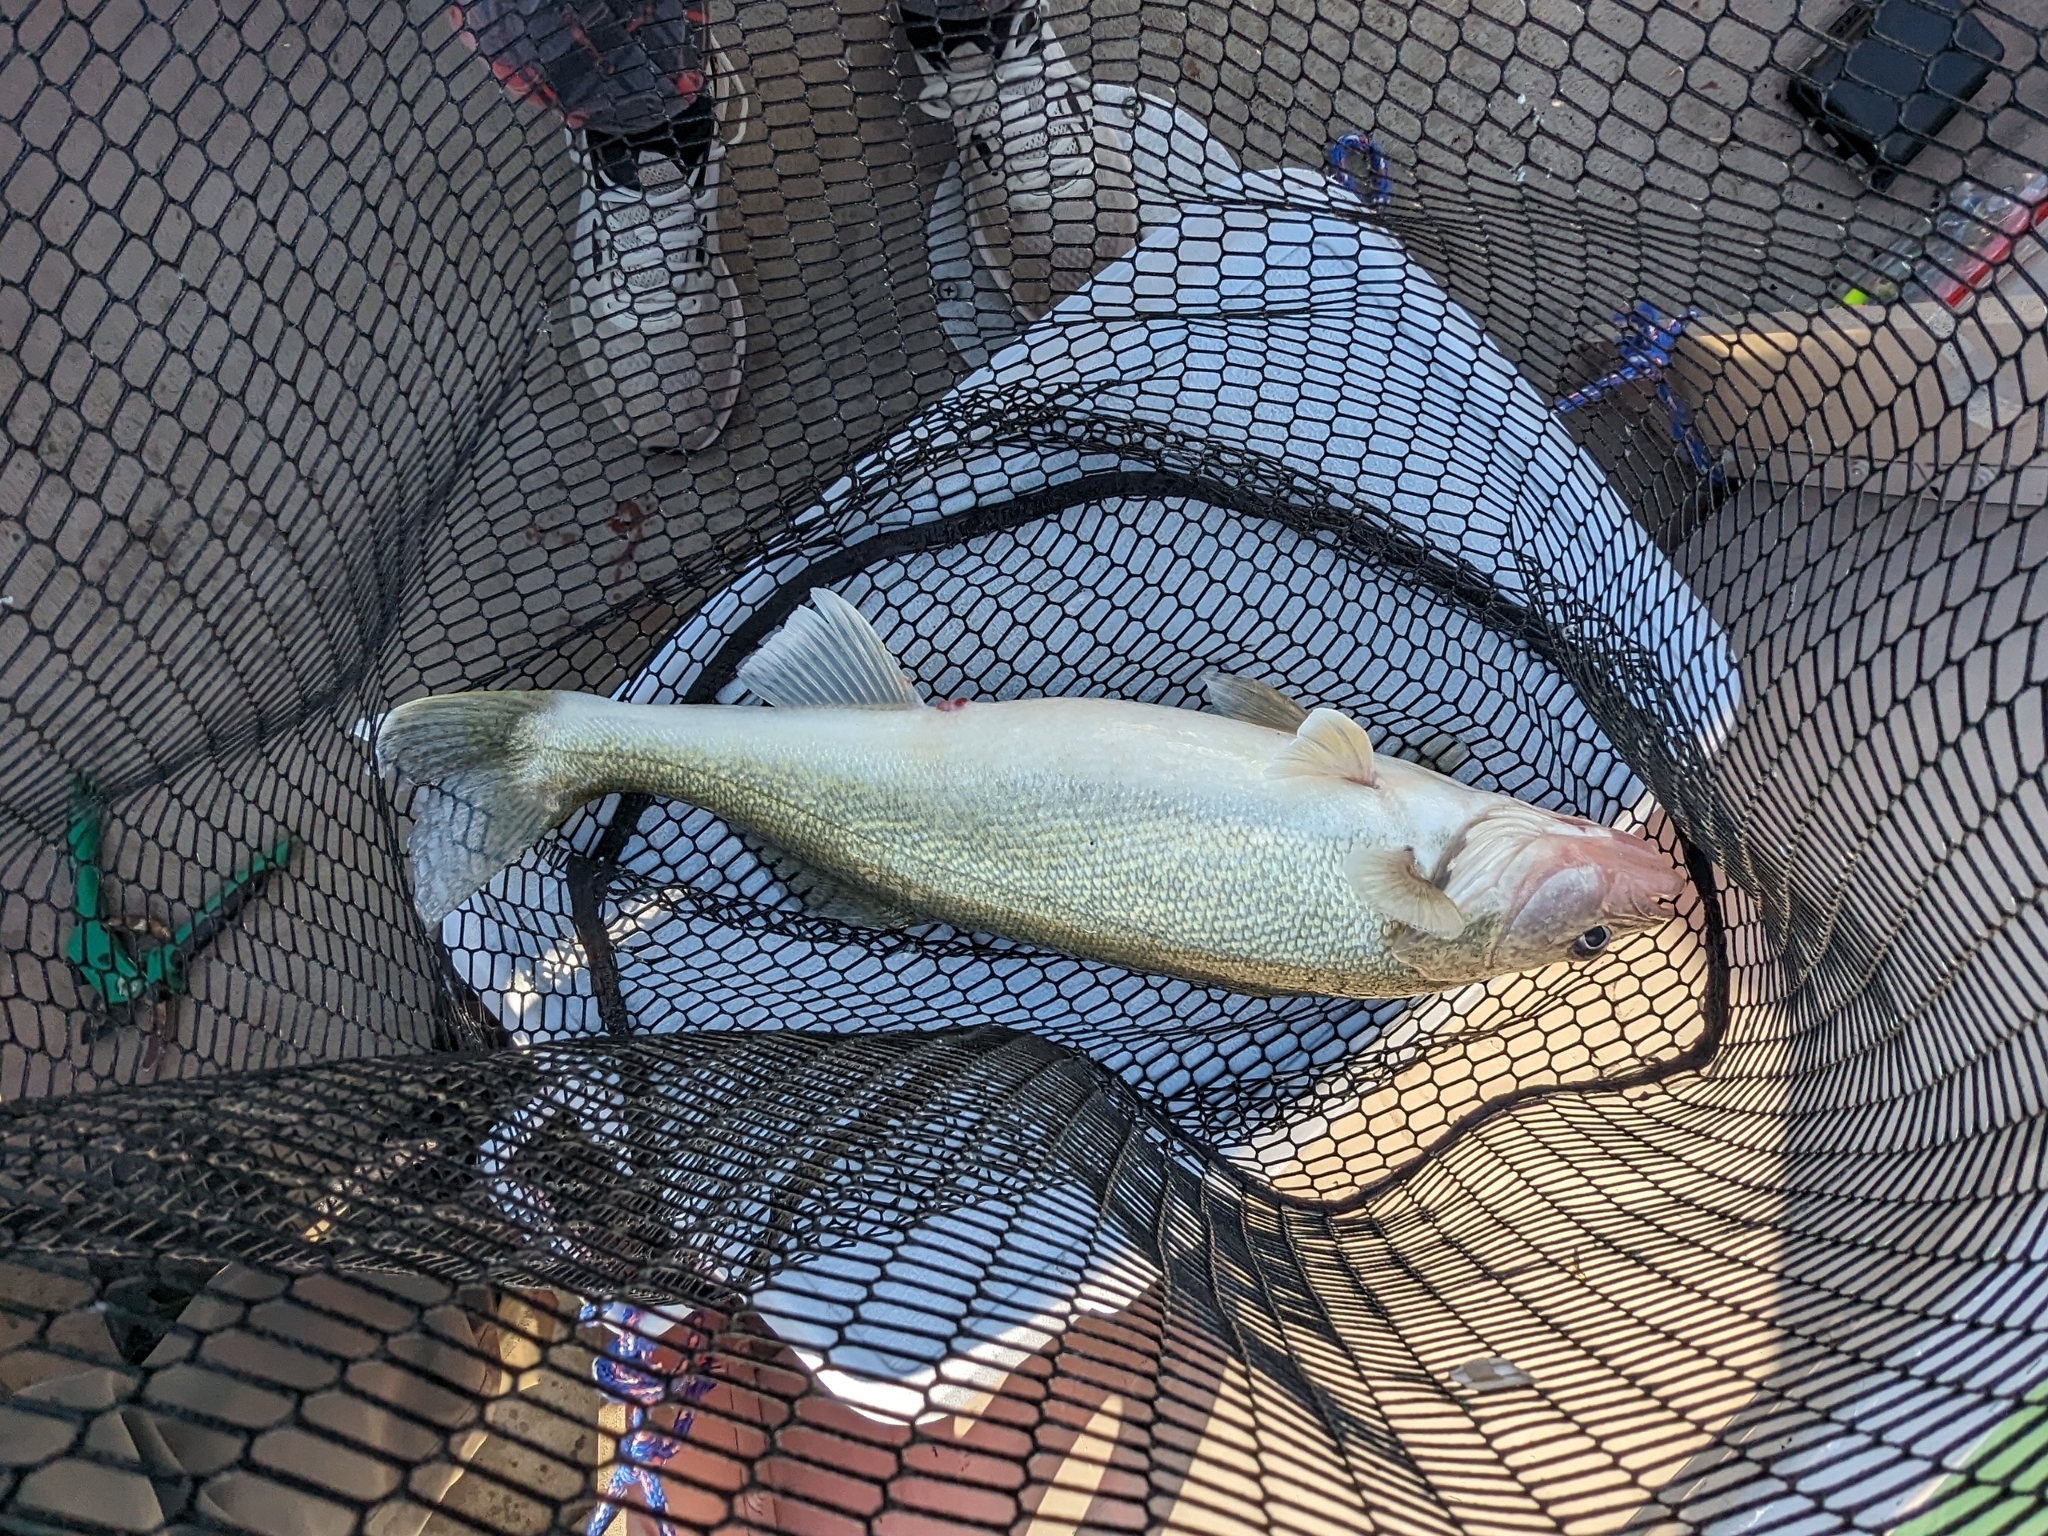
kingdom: Animalia
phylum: Chordata
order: Perciformes
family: Percidae
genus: Sander
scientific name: Sander vitreus
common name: Walleye
